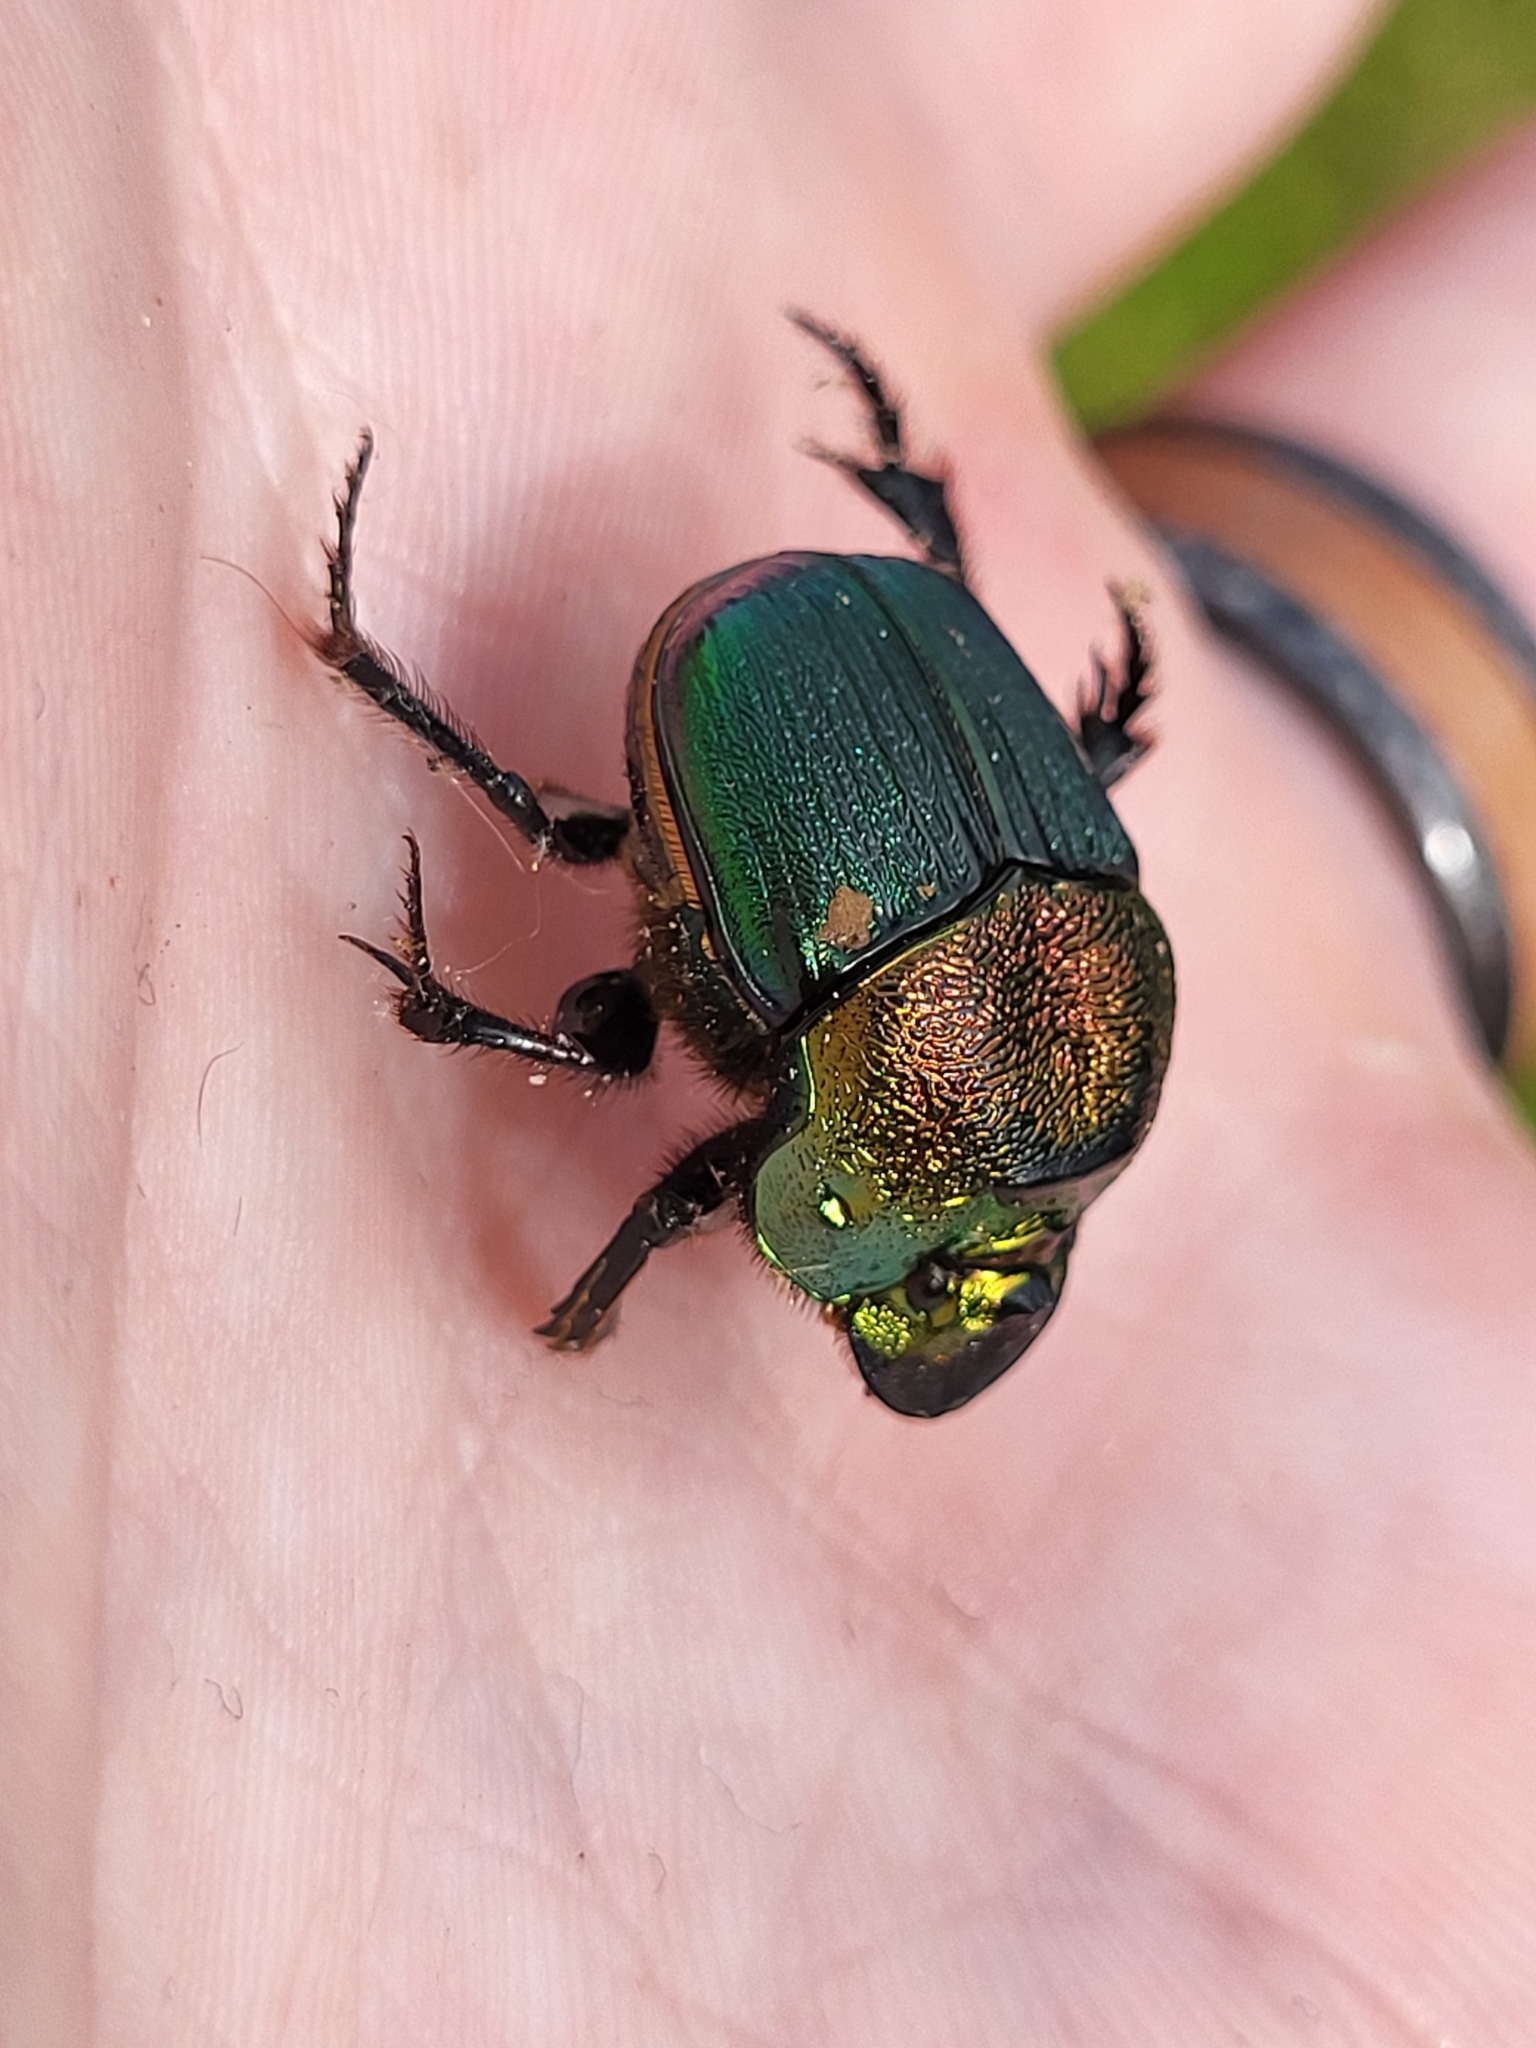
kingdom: Animalia
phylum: Arthropoda
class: Insecta
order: Coleoptera
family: Scarabaeidae
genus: Phanaeus
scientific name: Phanaeus vindex
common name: Rainbow scarab
